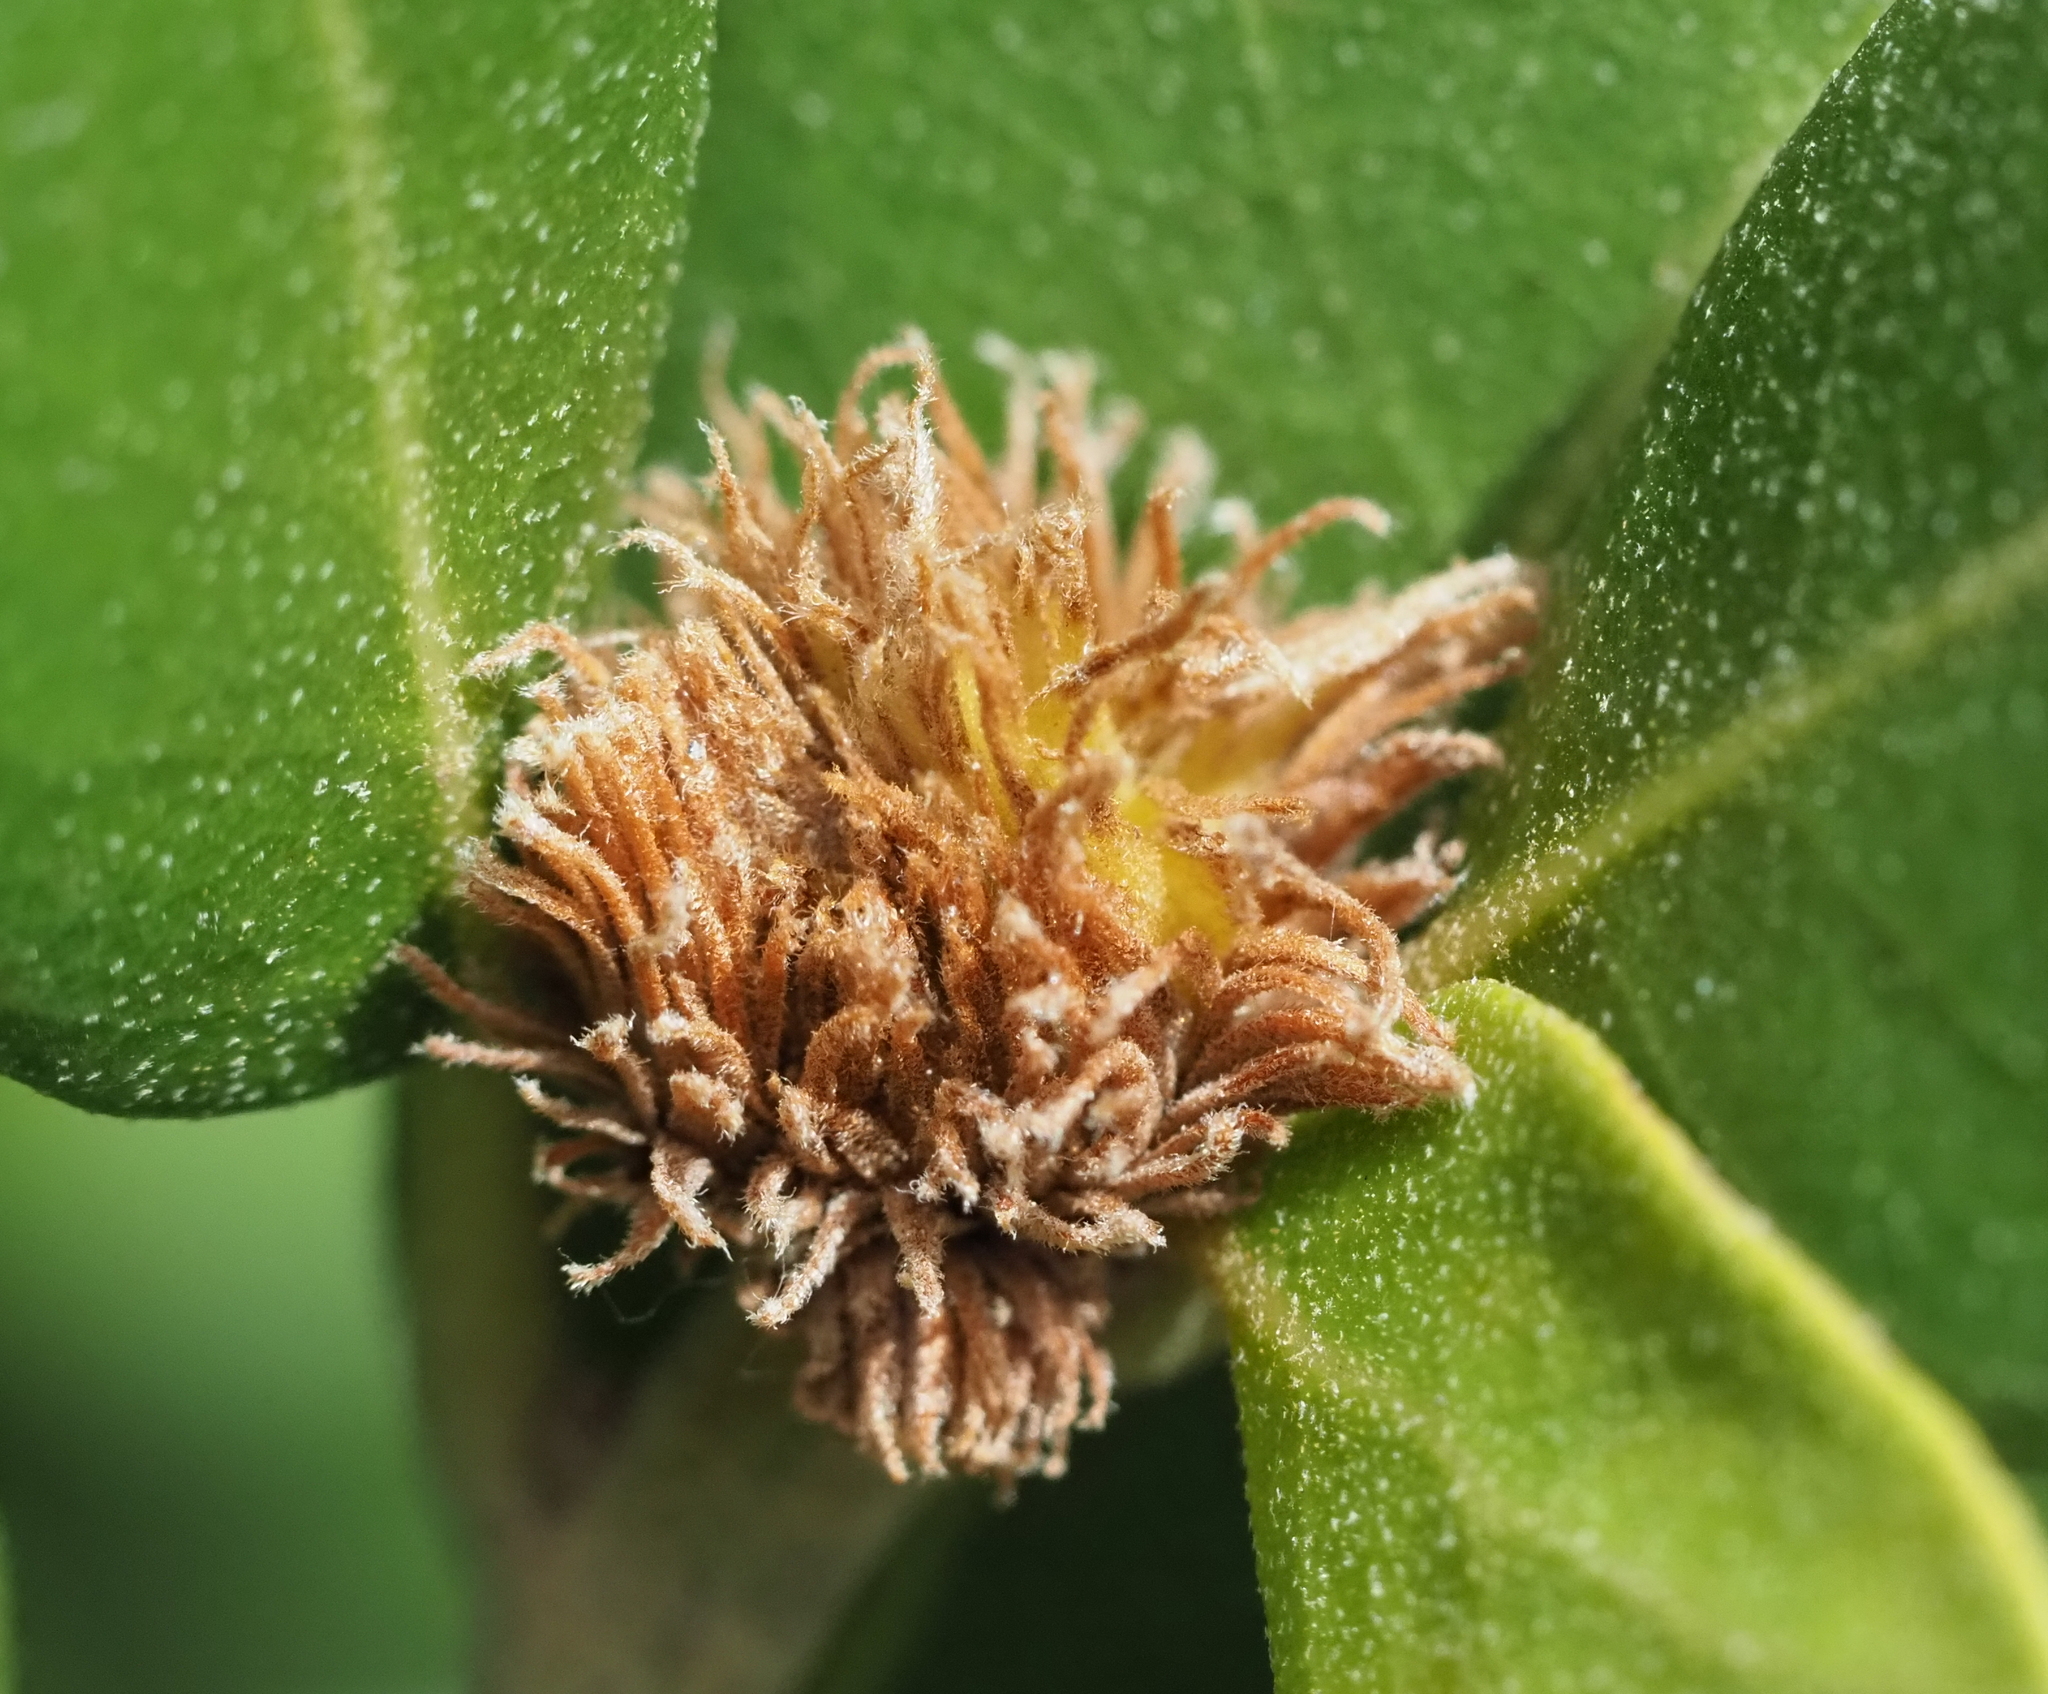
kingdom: Animalia
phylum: Arthropoda
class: Insecta
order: Hymenoptera
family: Cynipidae
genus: Andricus
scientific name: Andricus quercusfoliatus
